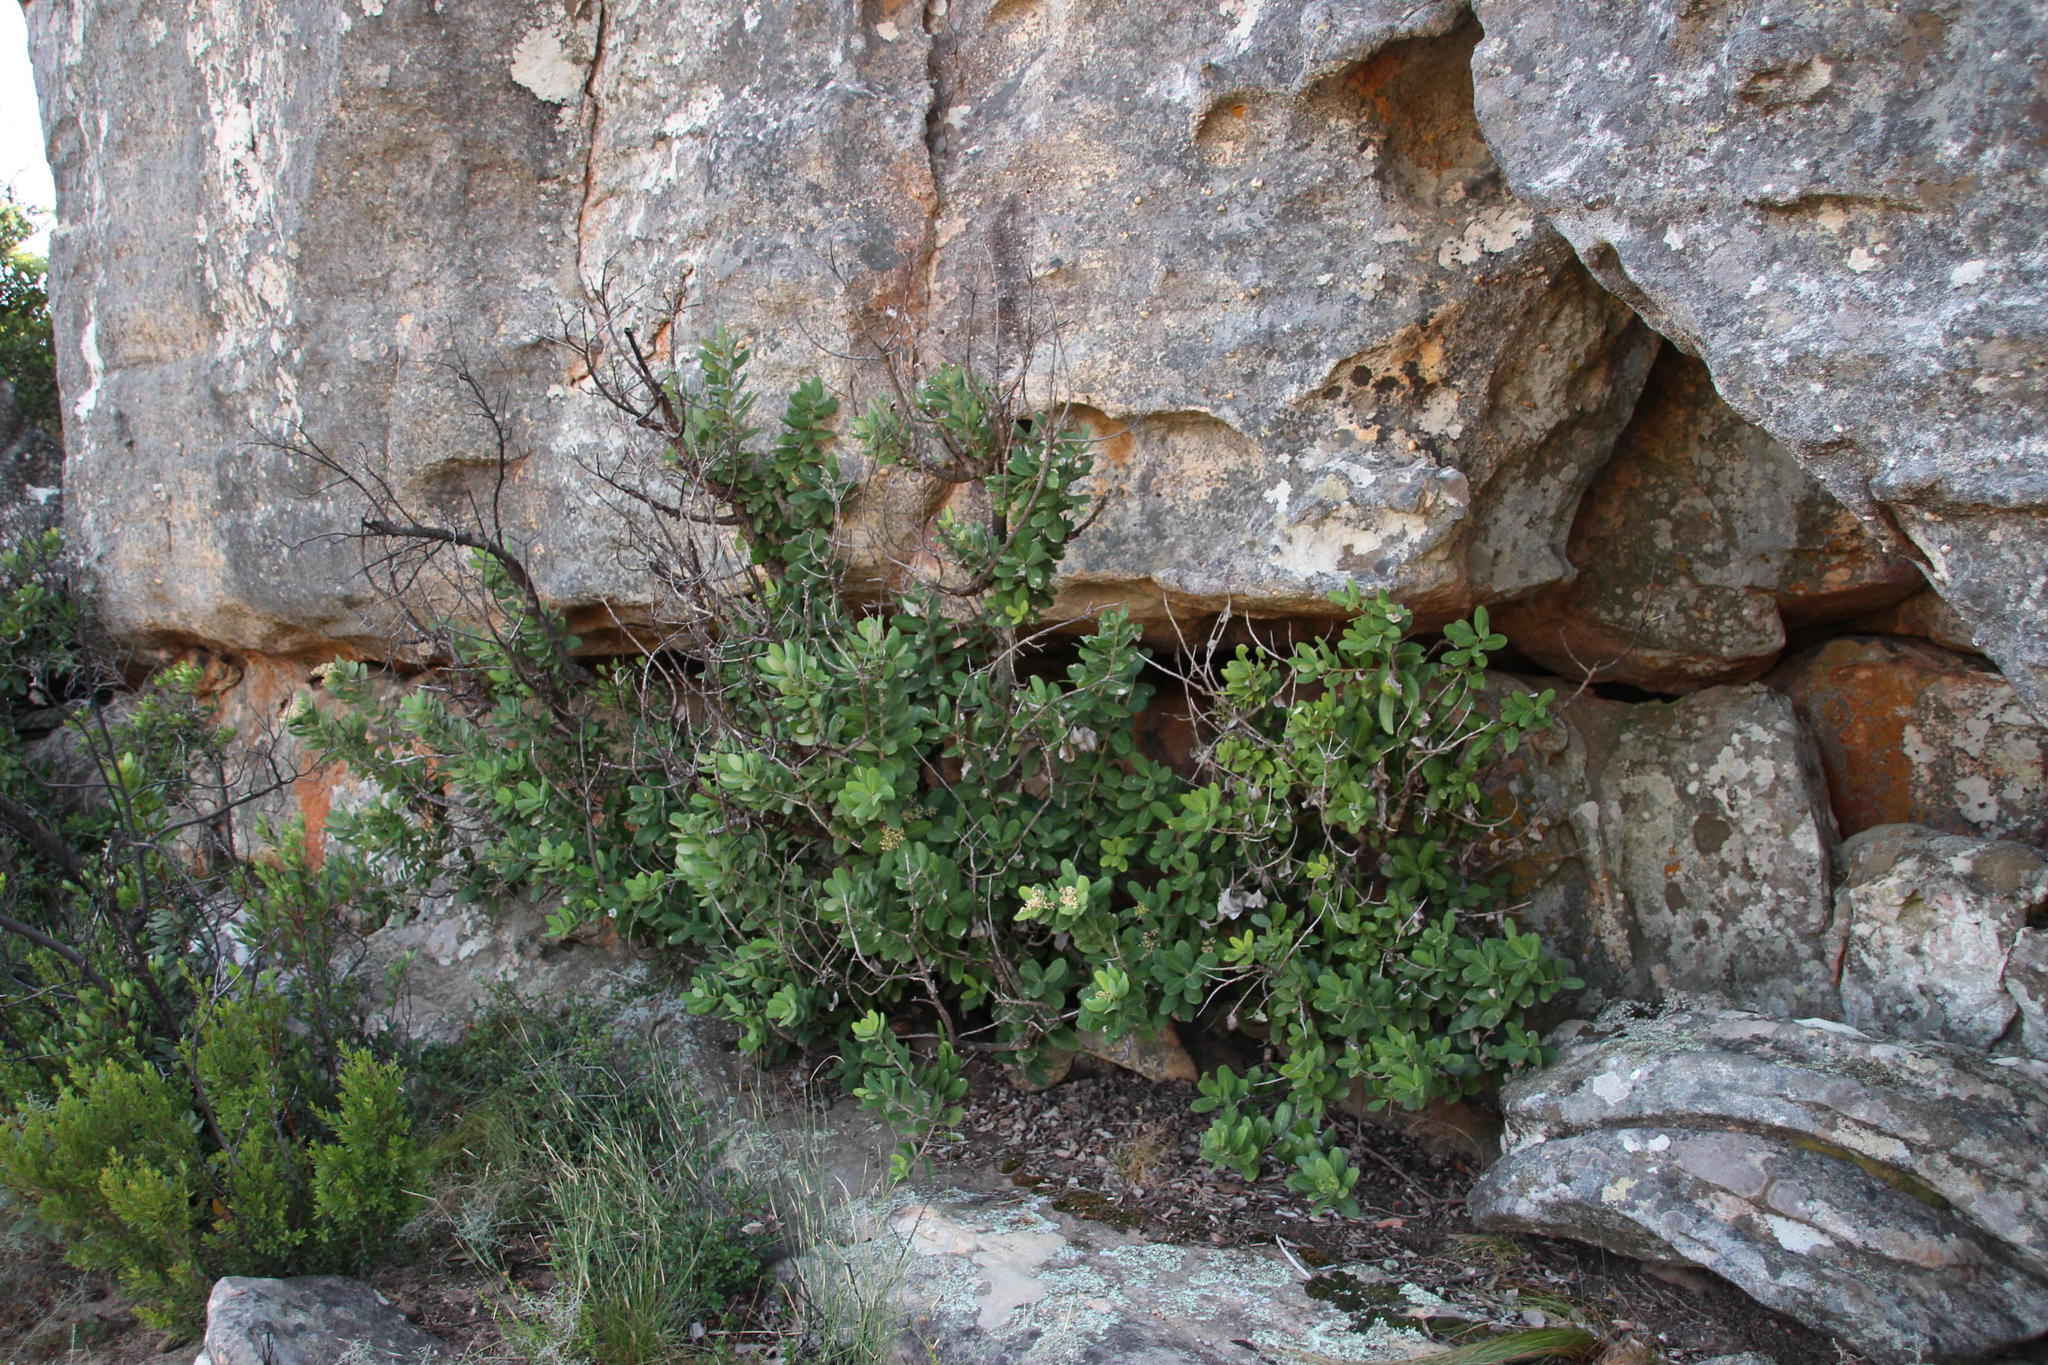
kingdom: Plantae
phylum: Tracheophyta
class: Magnoliopsida
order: Sapindales
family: Anacardiaceae
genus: Heeria
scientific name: Heeria argentea
